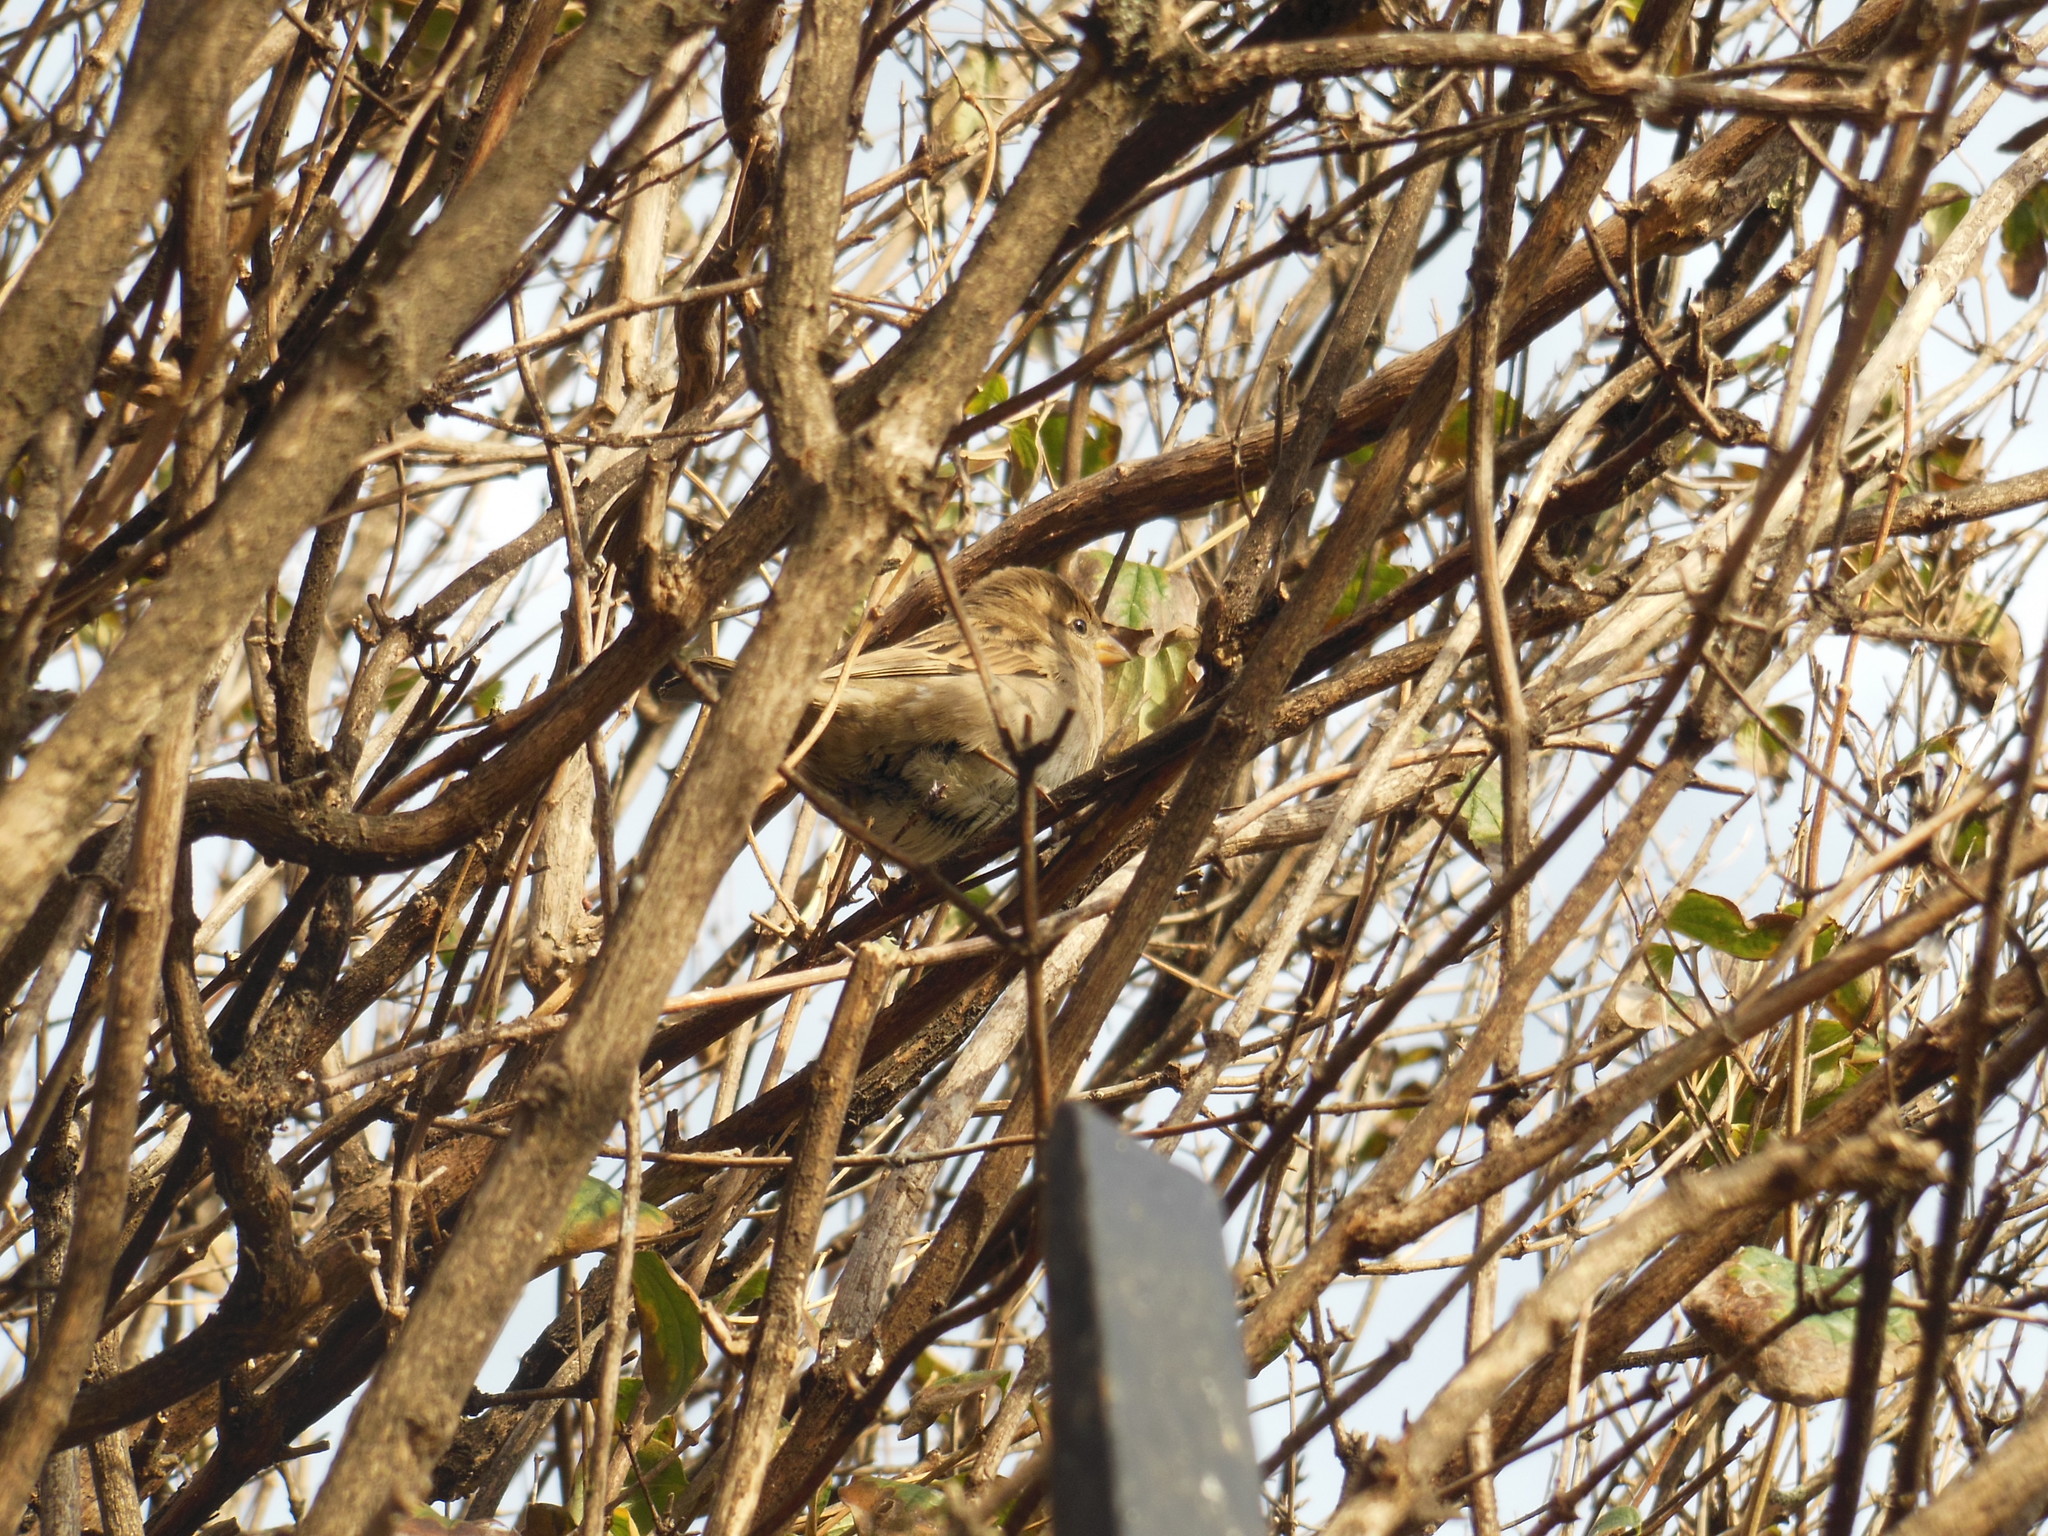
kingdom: Animalia
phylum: Chordata
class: Aves
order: Passeriformes
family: Passeridae
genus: Passer
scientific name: Passer domesticus
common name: House sparrow
